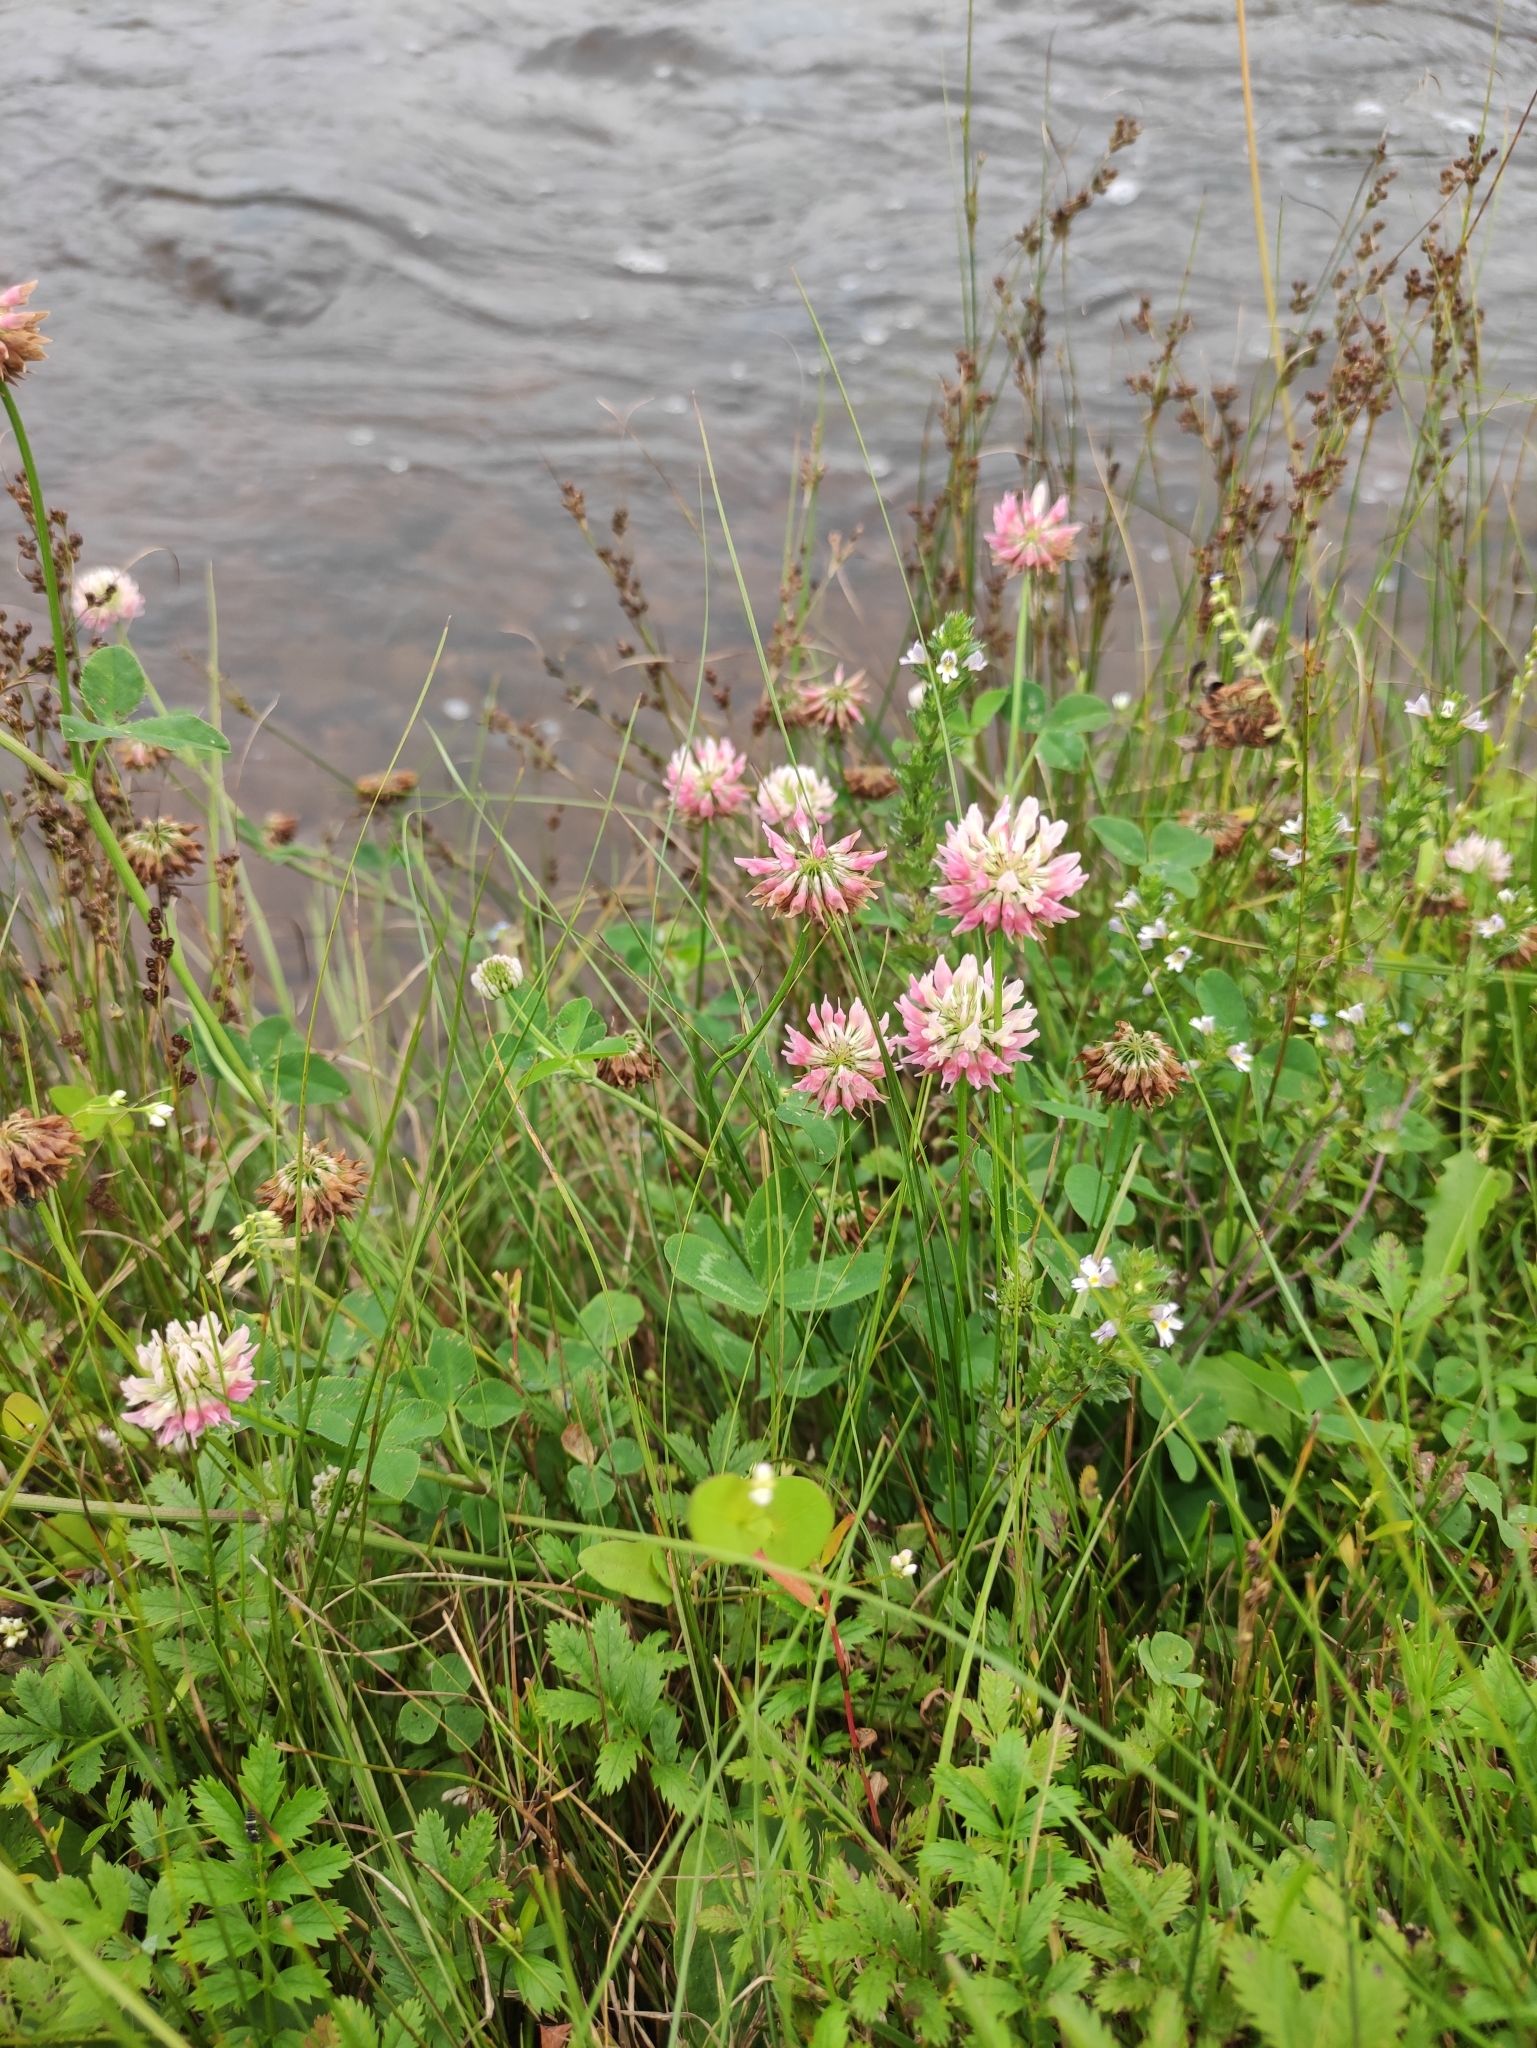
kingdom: Plantae
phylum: Tracheophyta
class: Magnoliopsida
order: Fabales
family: Fabaceae
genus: Trifolium
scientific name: Trifolium hybridum
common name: Alsike clover
